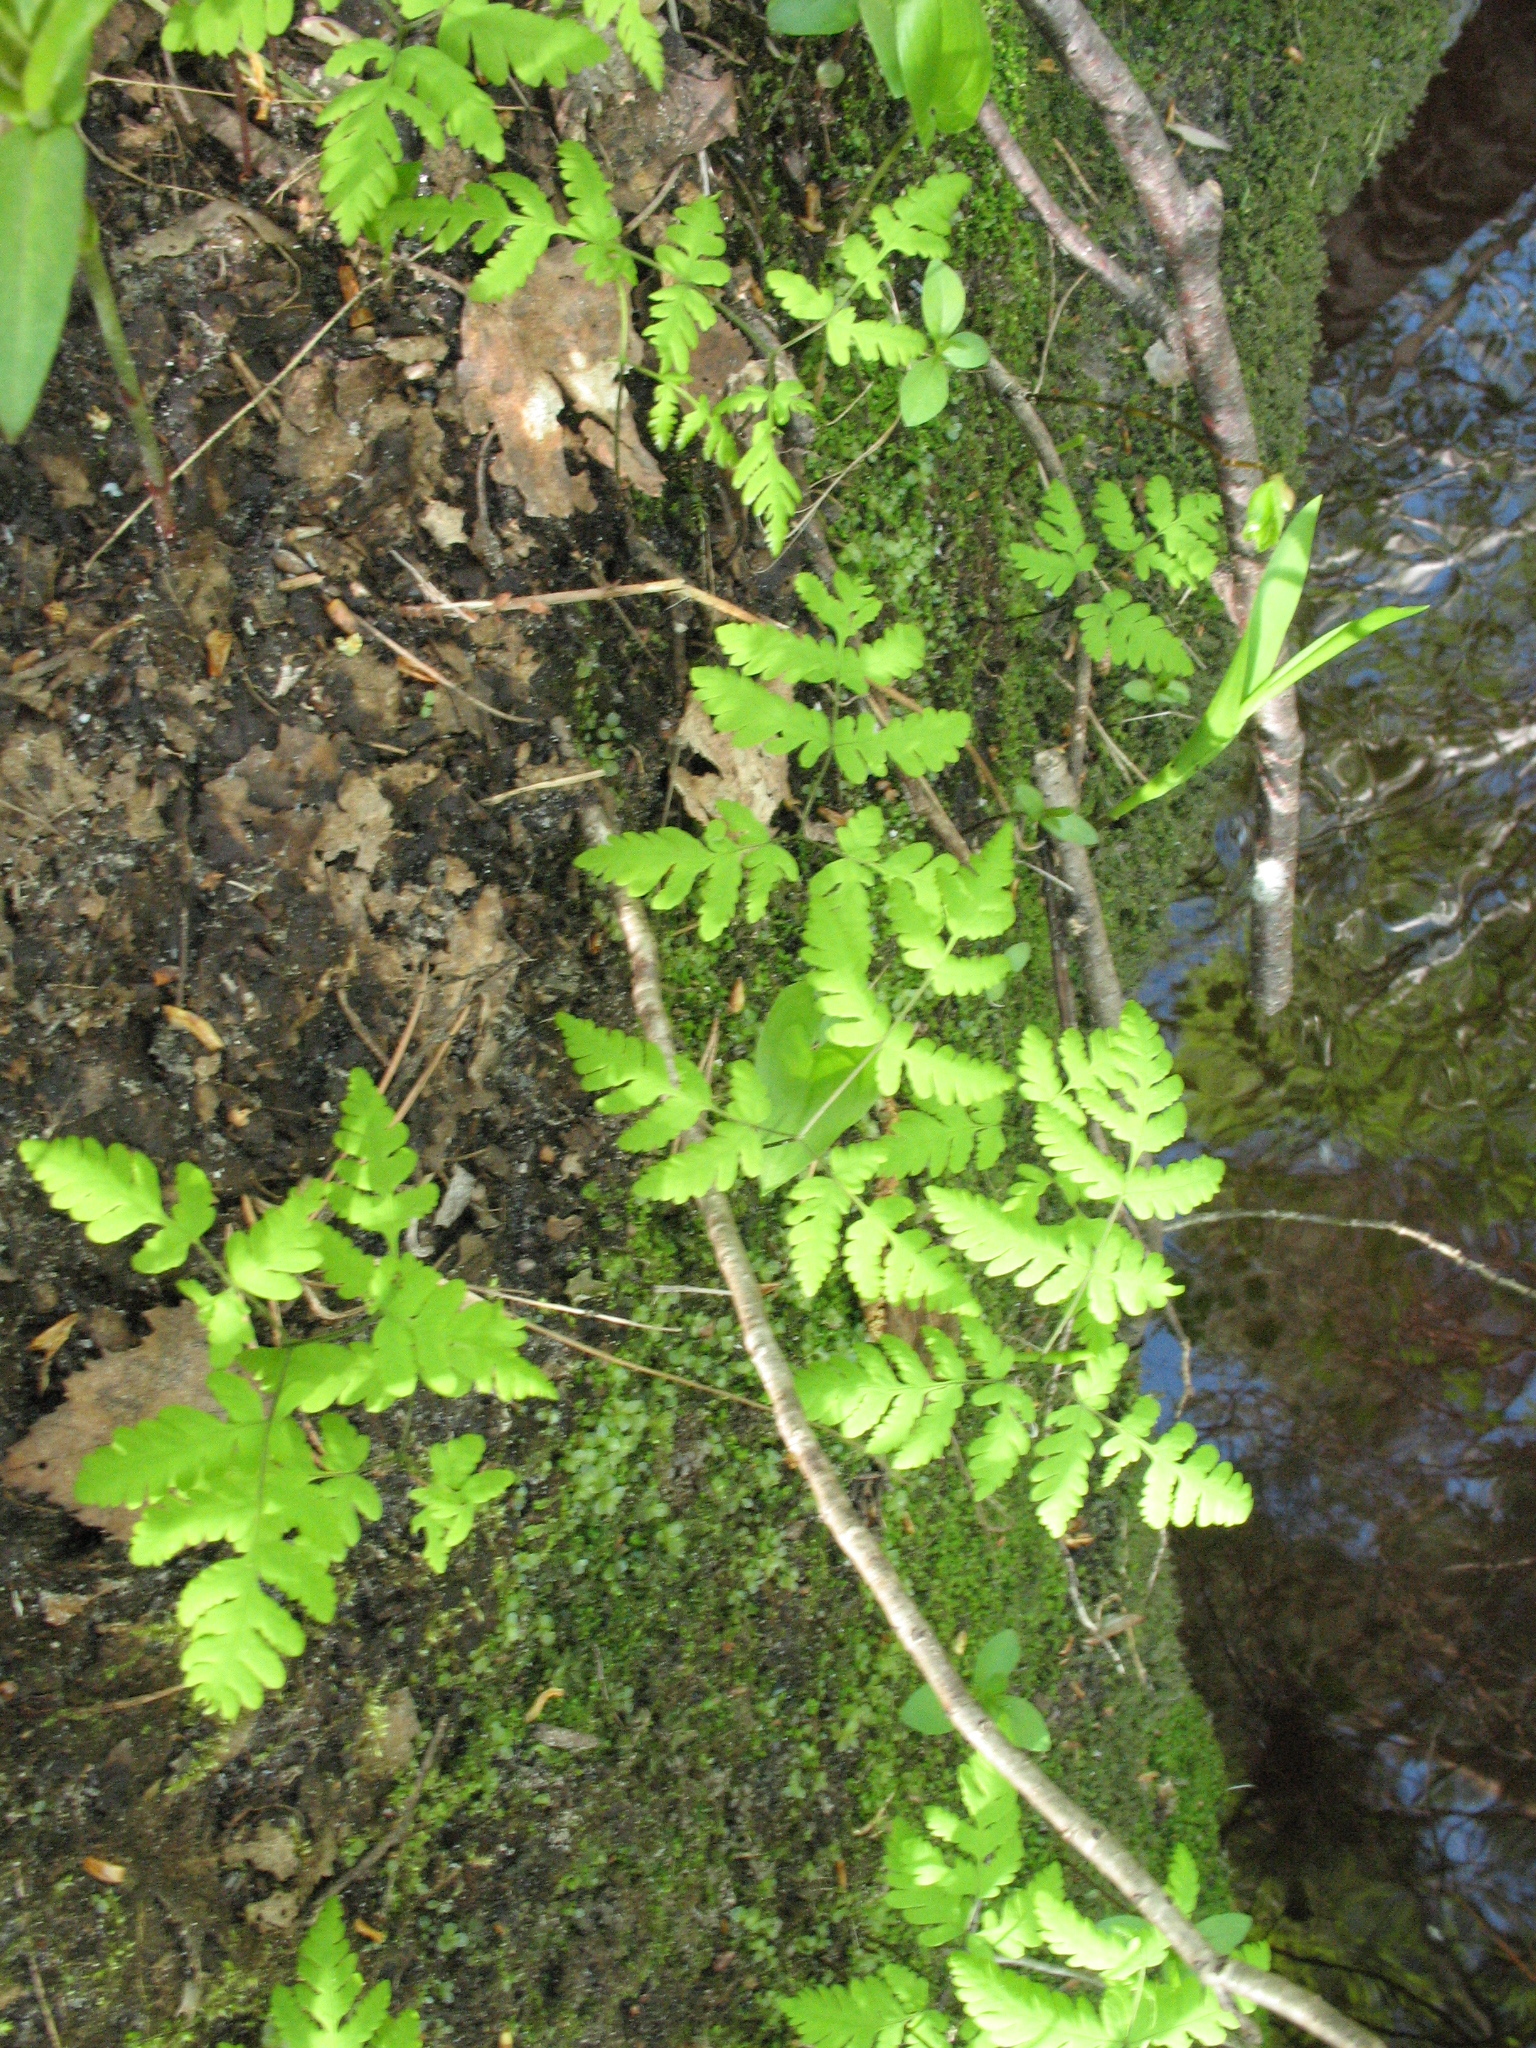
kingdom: Plantae
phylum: Tracheophyta
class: Polypodiopsida
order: Polypodiales
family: Cystopteridaceae
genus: Gymnocarpium
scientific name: Gymnocarpium dryopteris
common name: Oak fern
